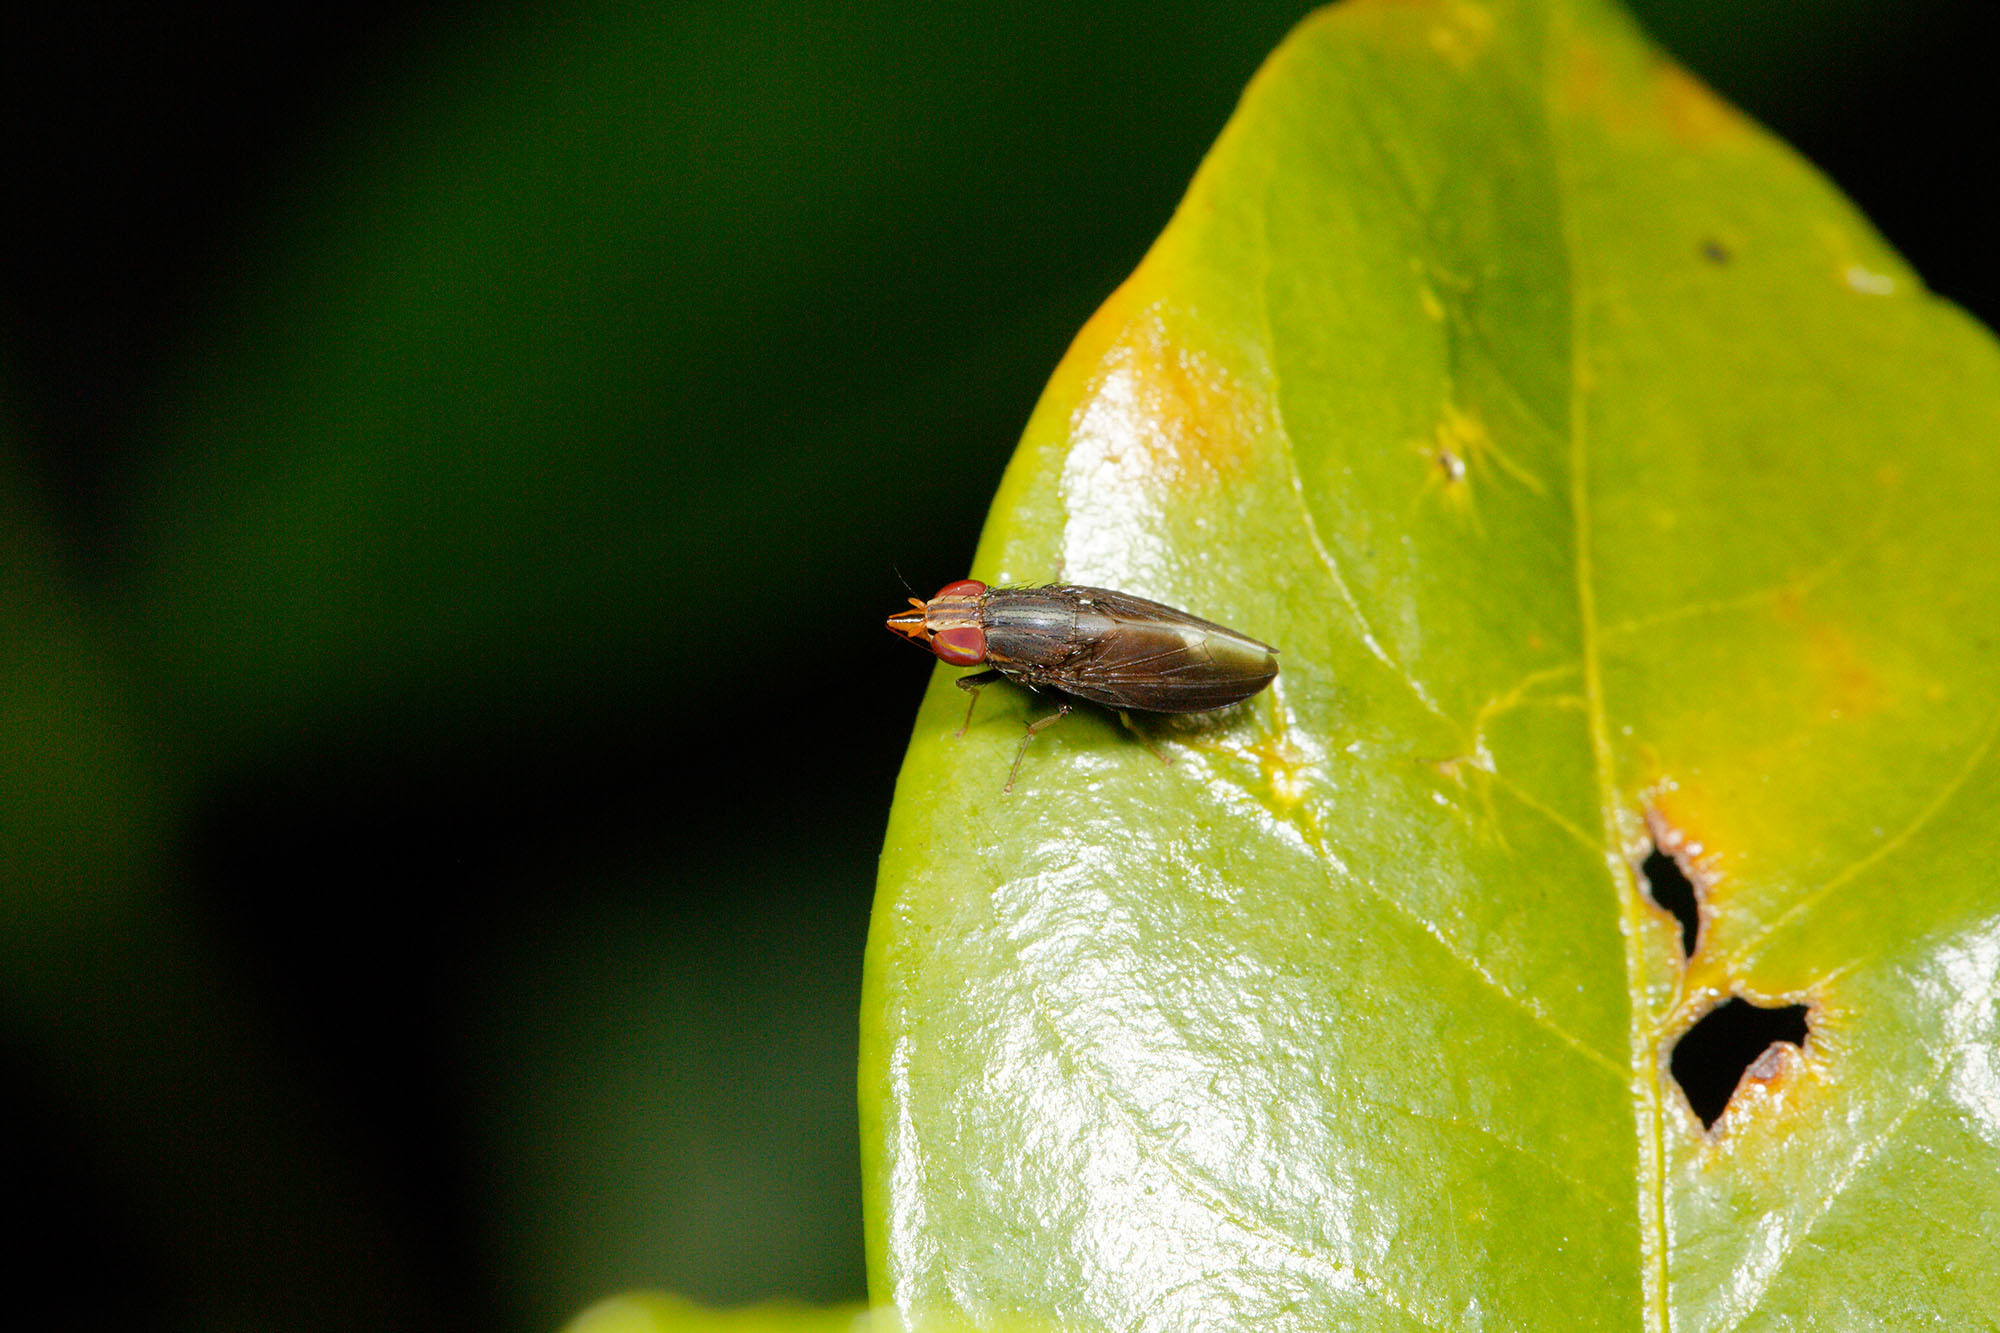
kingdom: Animalia
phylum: Arthropoda
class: Insecta
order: Diptera
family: Lauxaniidae
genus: Cephaloconus
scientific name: Cephaloconus tenebrosus
